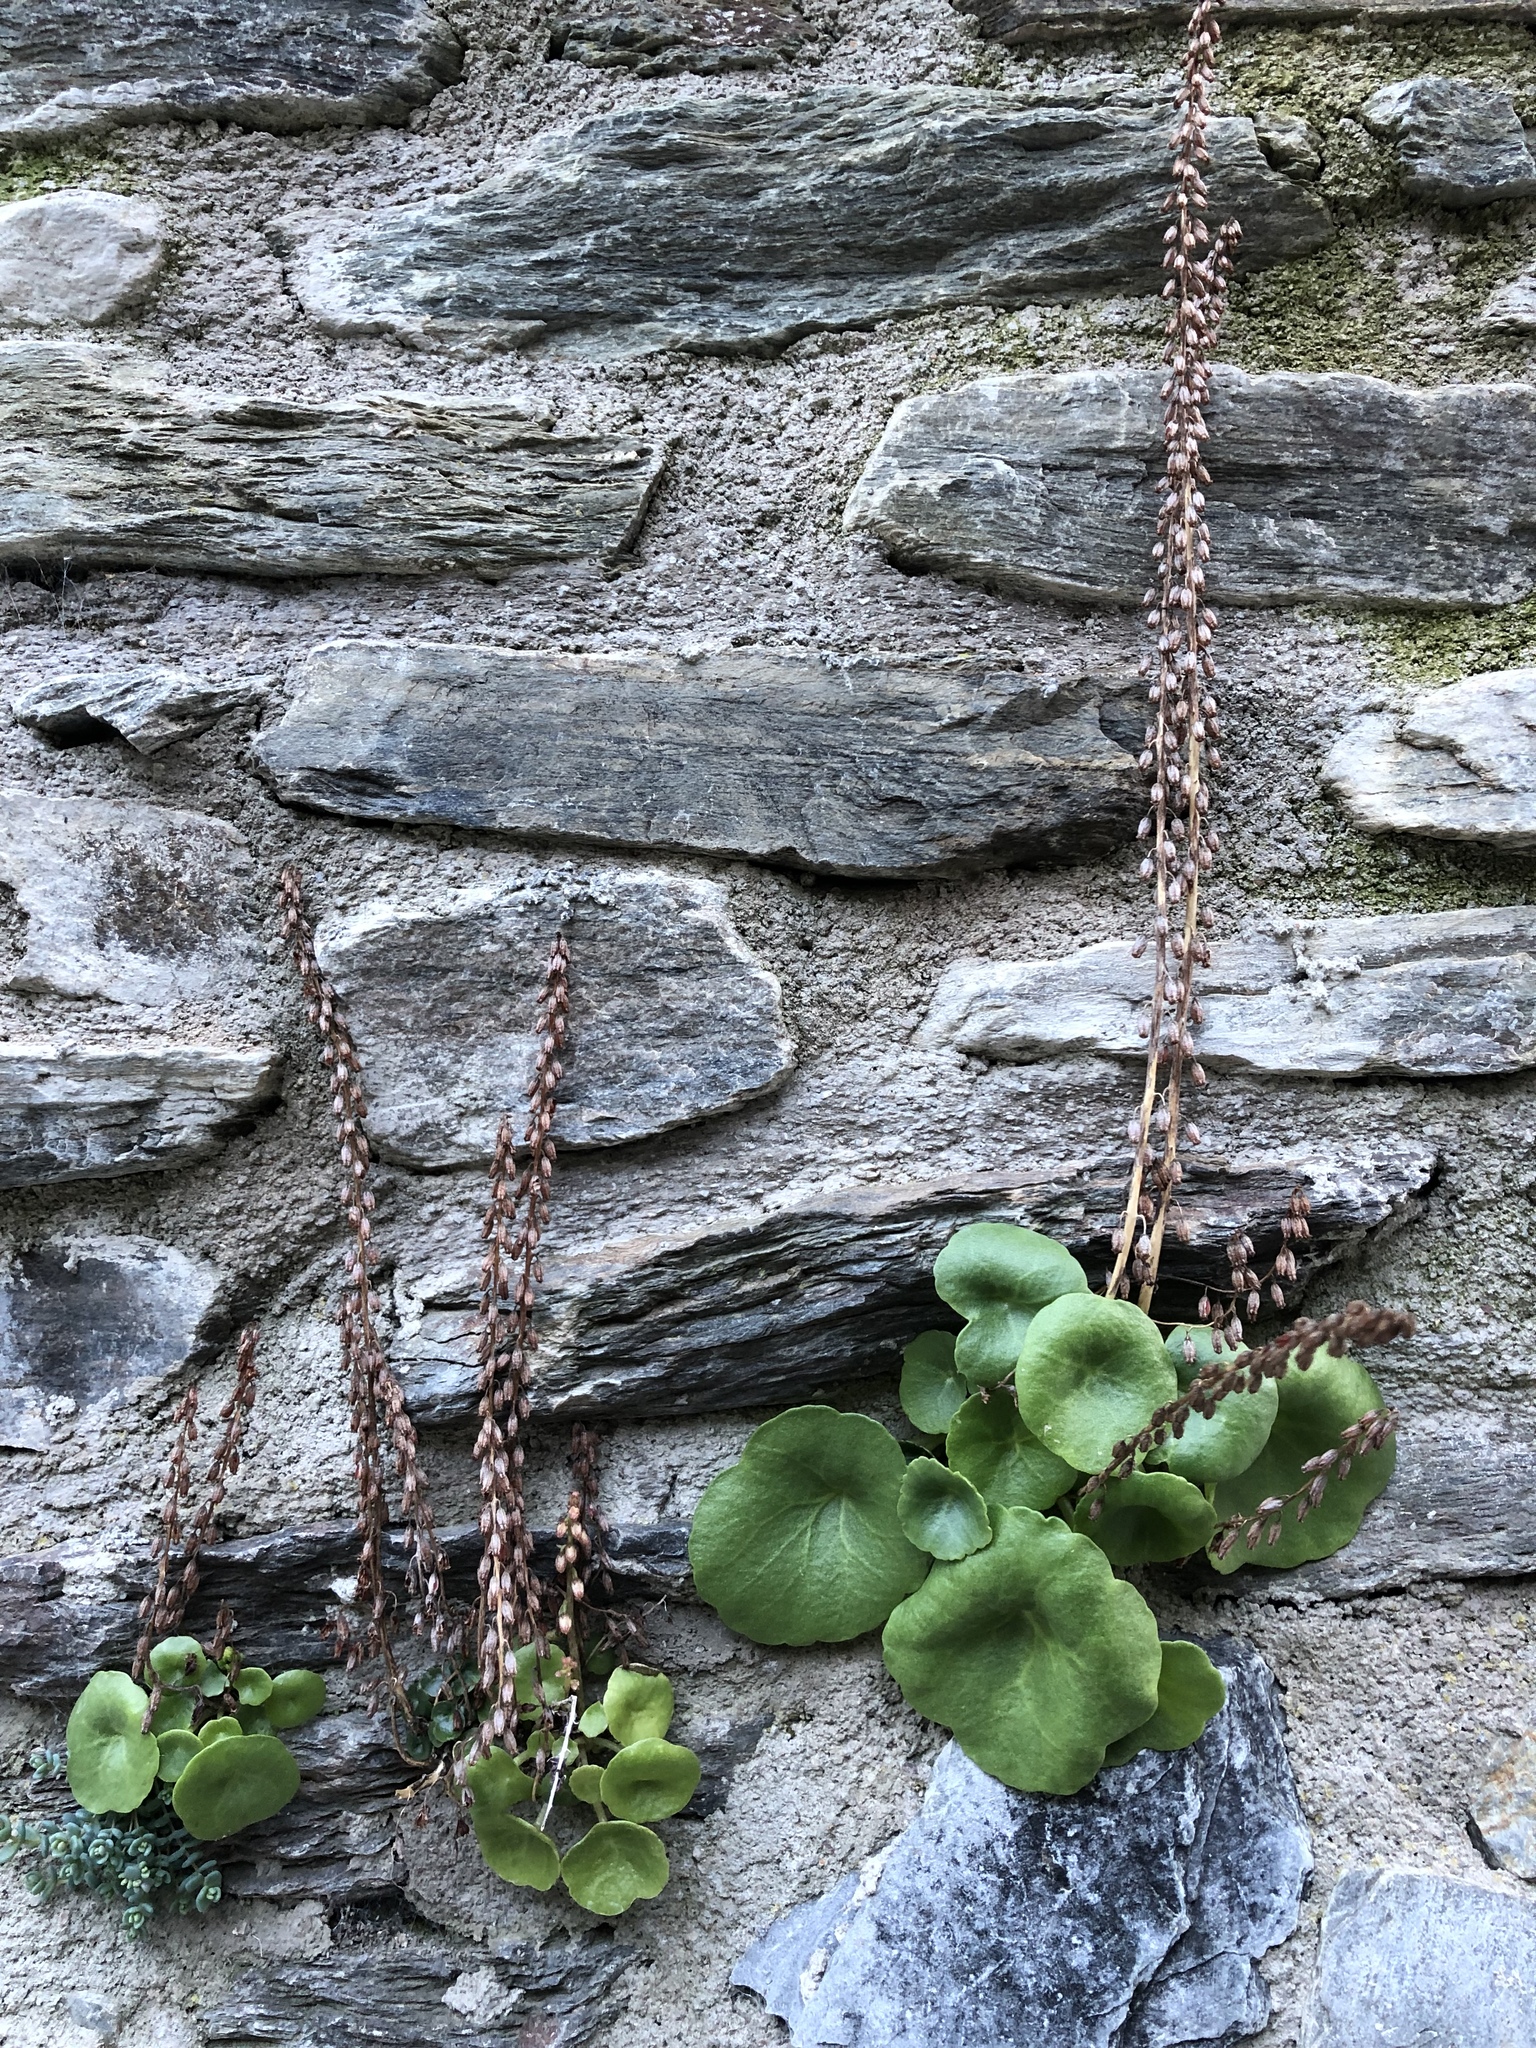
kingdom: Plantae
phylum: Tracheophyta
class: Magnoliopsida
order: Saxifragales
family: Crassulaceae
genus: Umbilicus
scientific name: Umbilicus rupestris
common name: Navelwort
